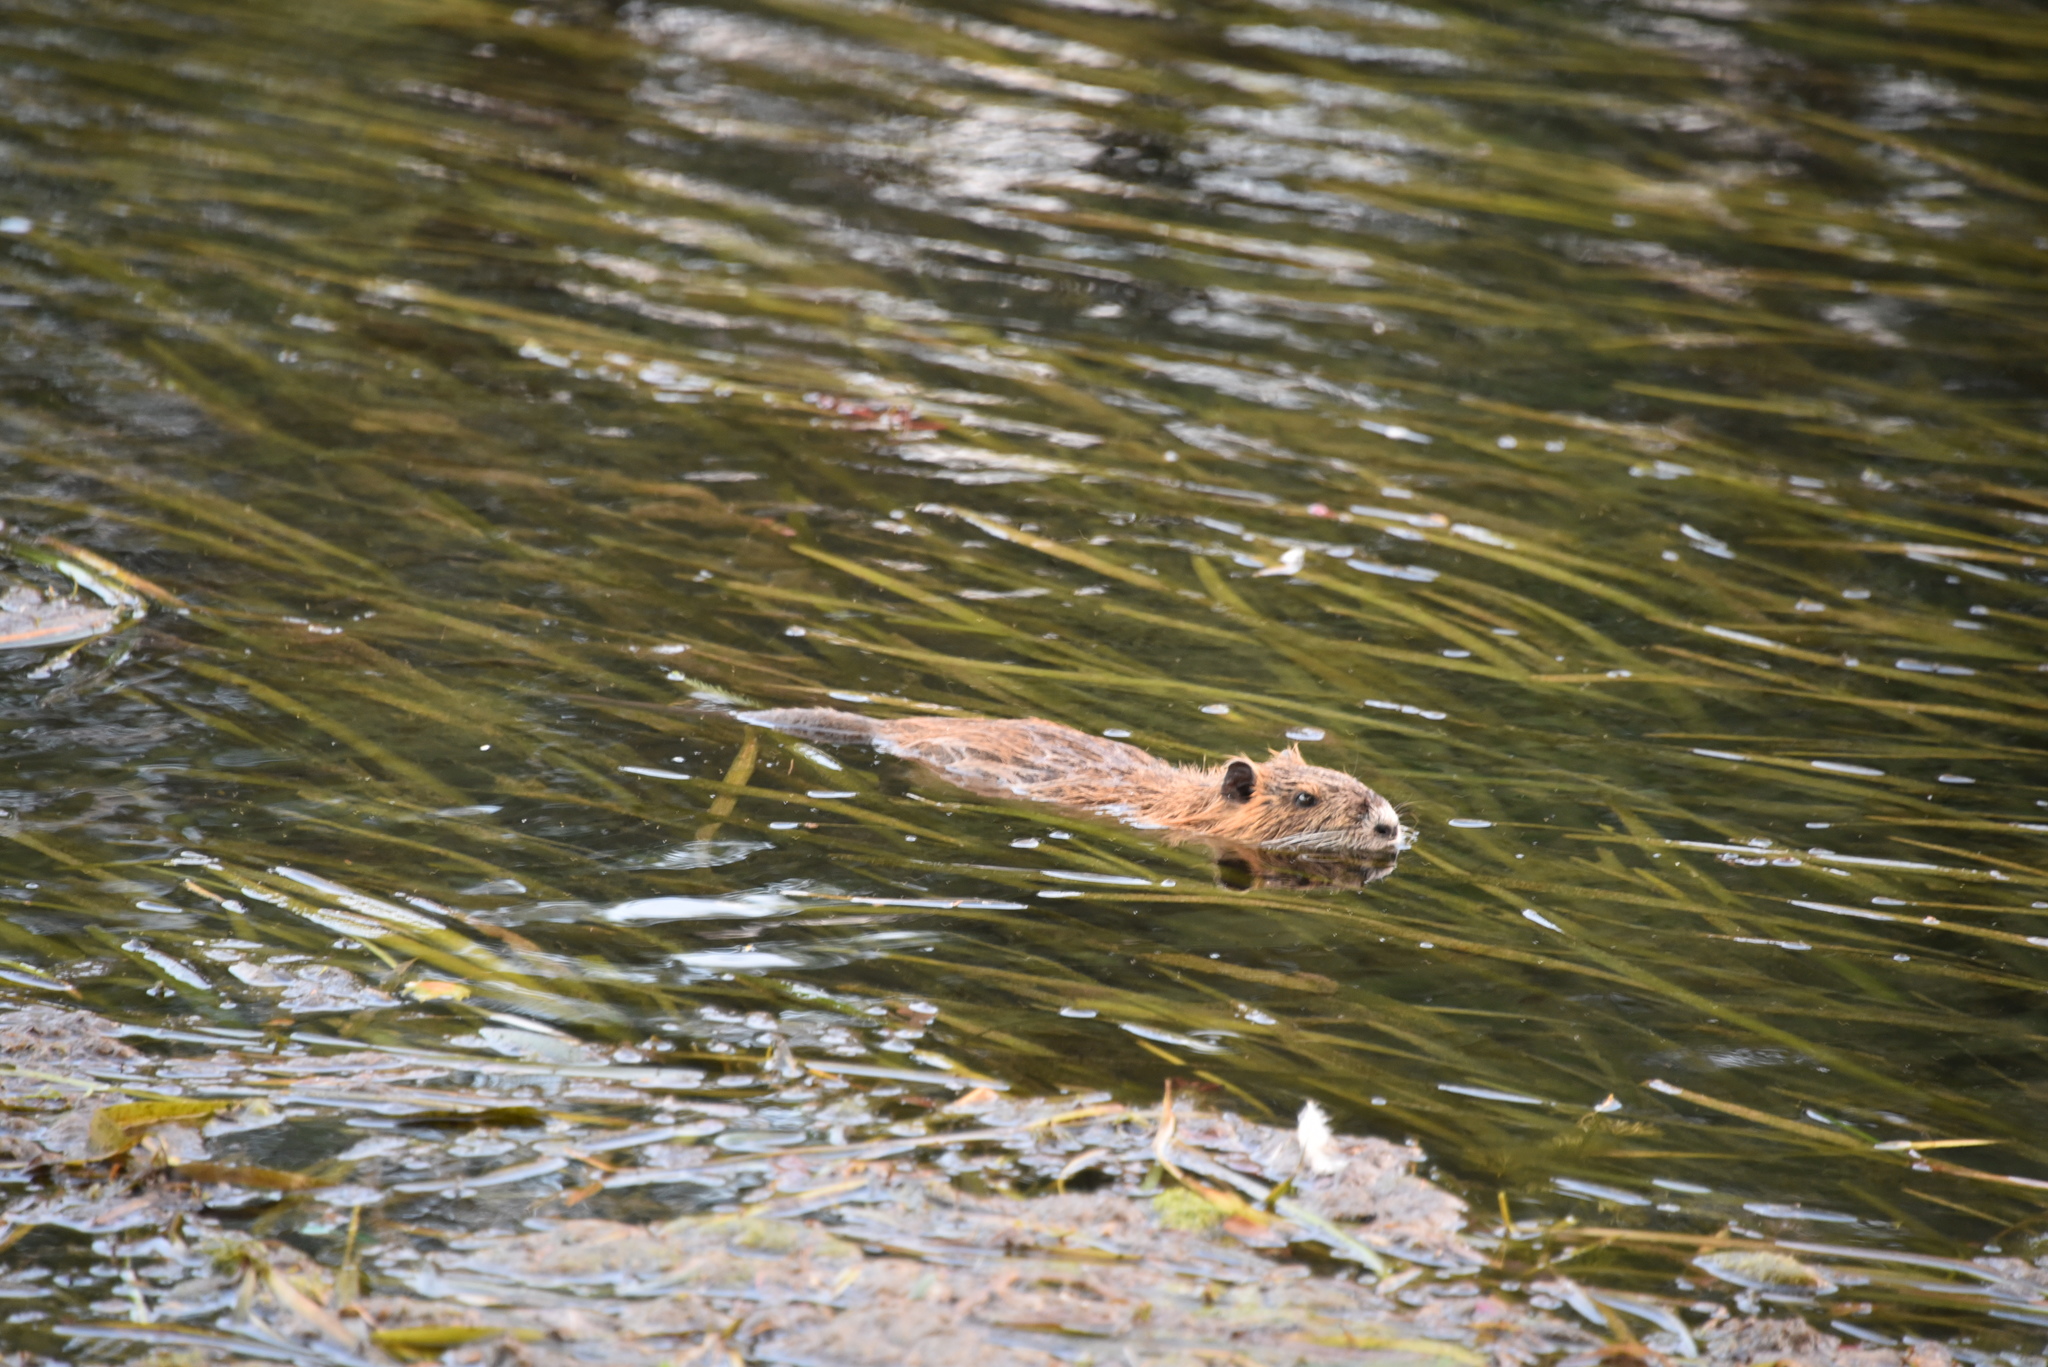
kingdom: Animalia
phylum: Chordata
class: Mammalia
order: Rodentia
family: Myocastoridae
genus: Myocastor
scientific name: Myocastor coypus
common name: Coypu
